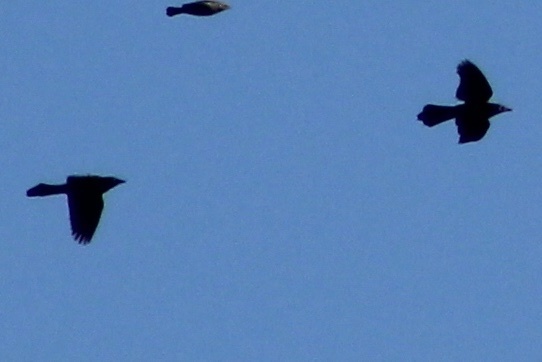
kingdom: Animalia
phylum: Chordata
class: Aves
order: Passeriformes
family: Icteridae
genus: Quiscalus
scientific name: Quiscalus quiscula
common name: Common grackle
